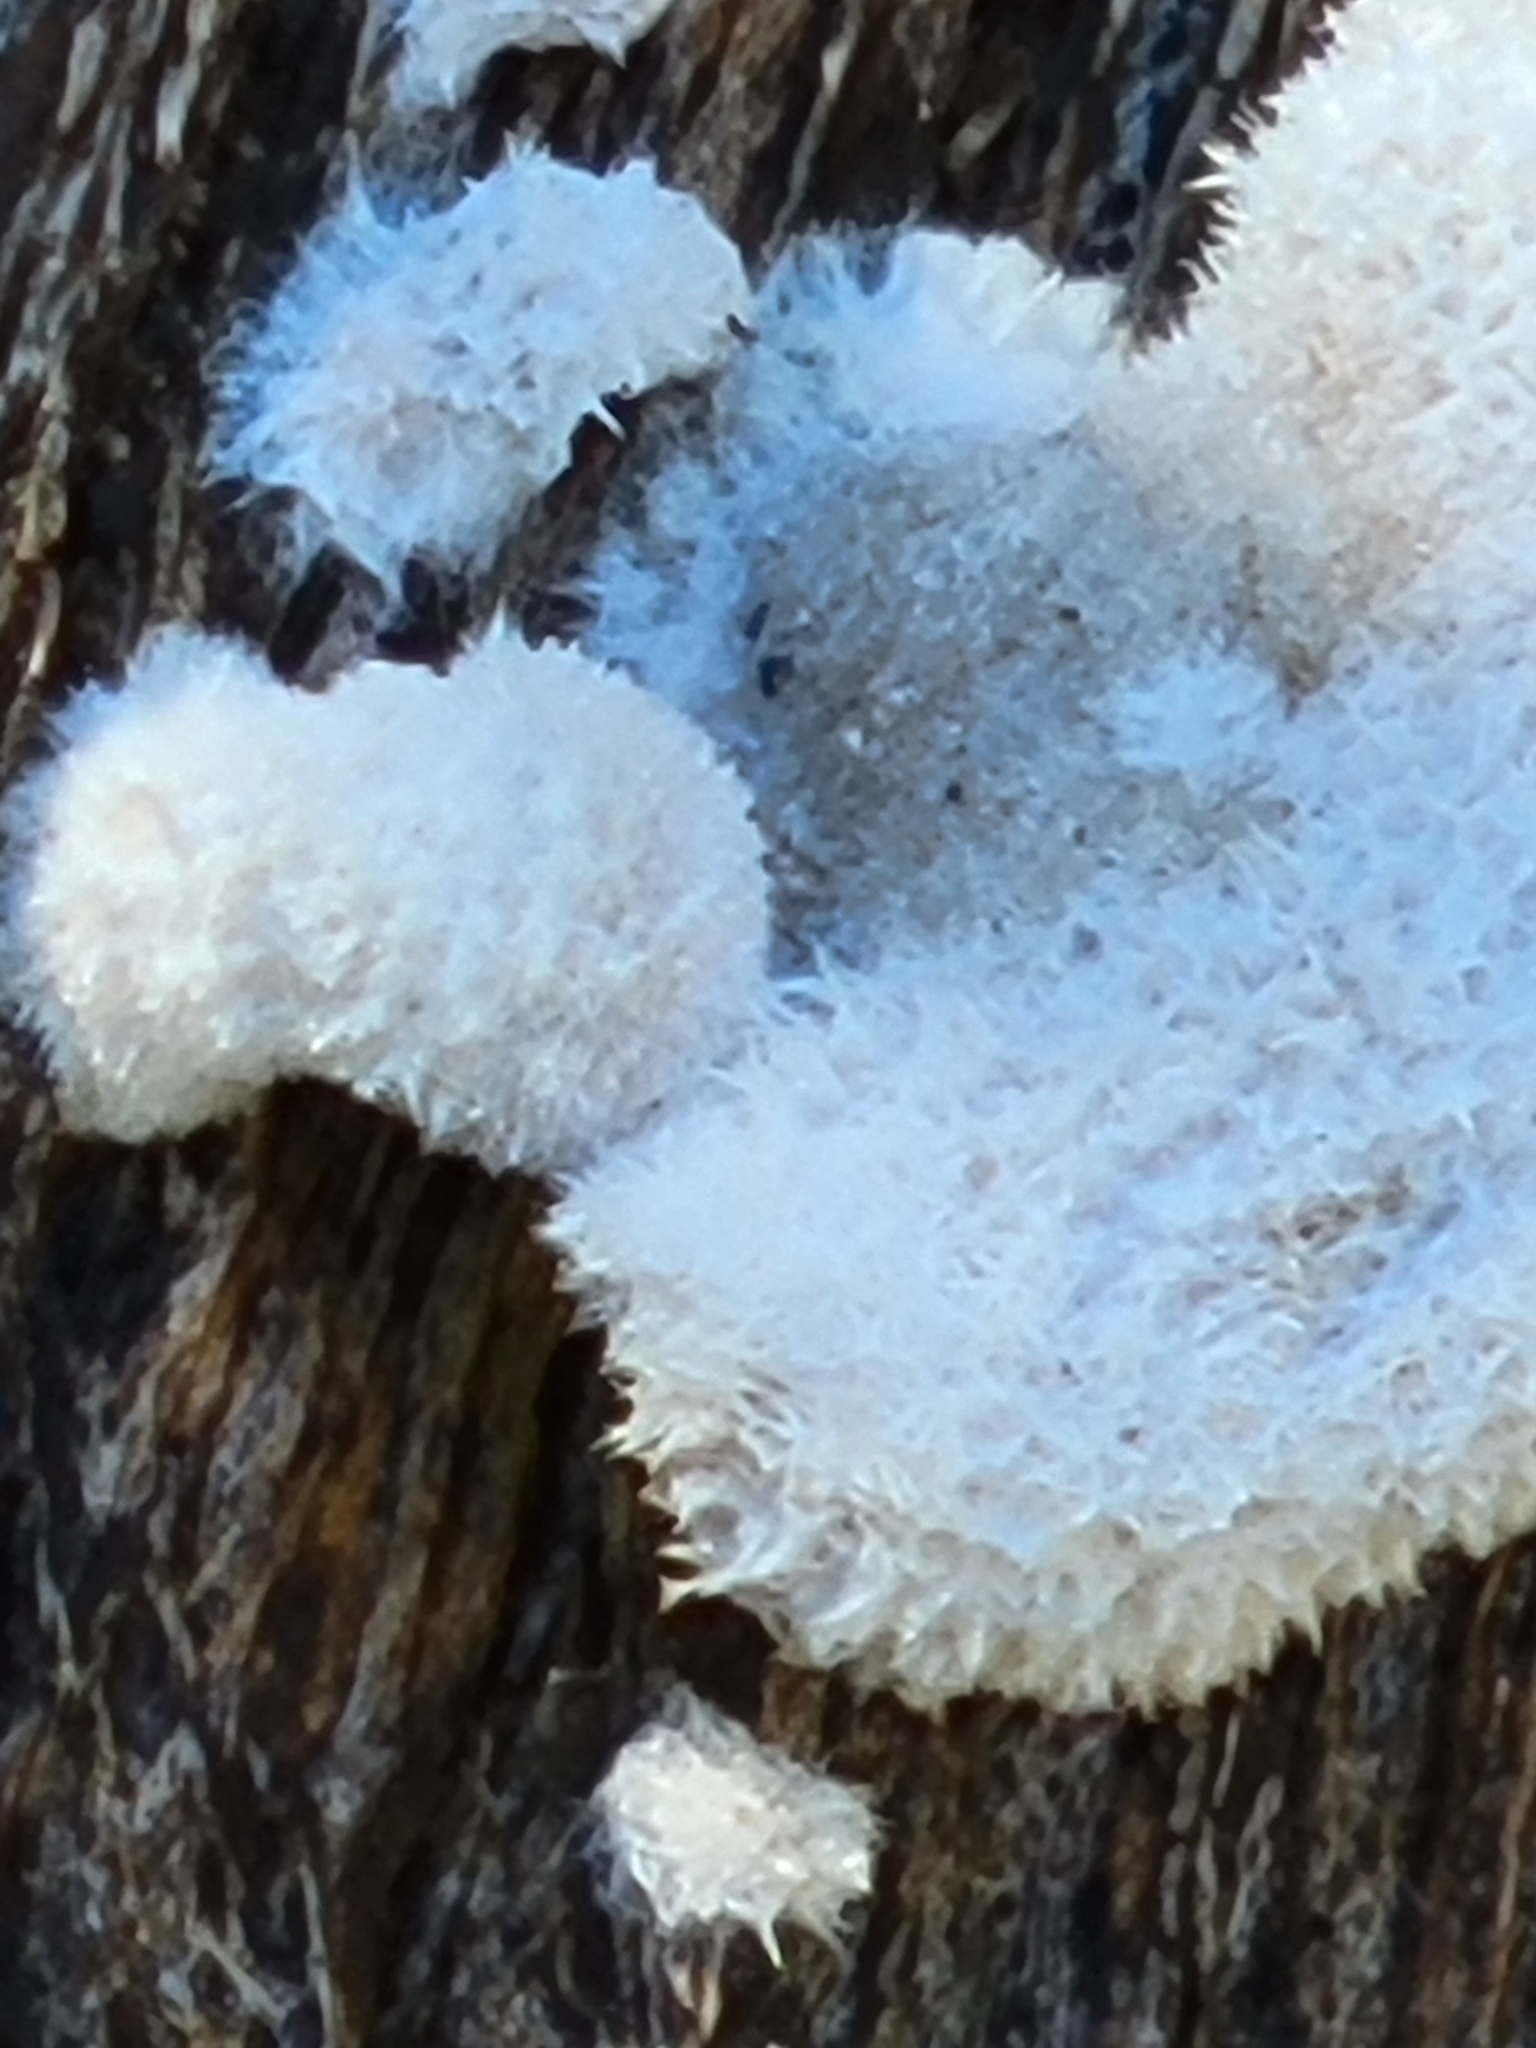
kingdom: Fungi
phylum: Basidiomycota
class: Agaricomycetes
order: Agaricales
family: Schizophyllaceae
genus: Schizophyllum
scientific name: Schizophyllum commune
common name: Common porecrust
